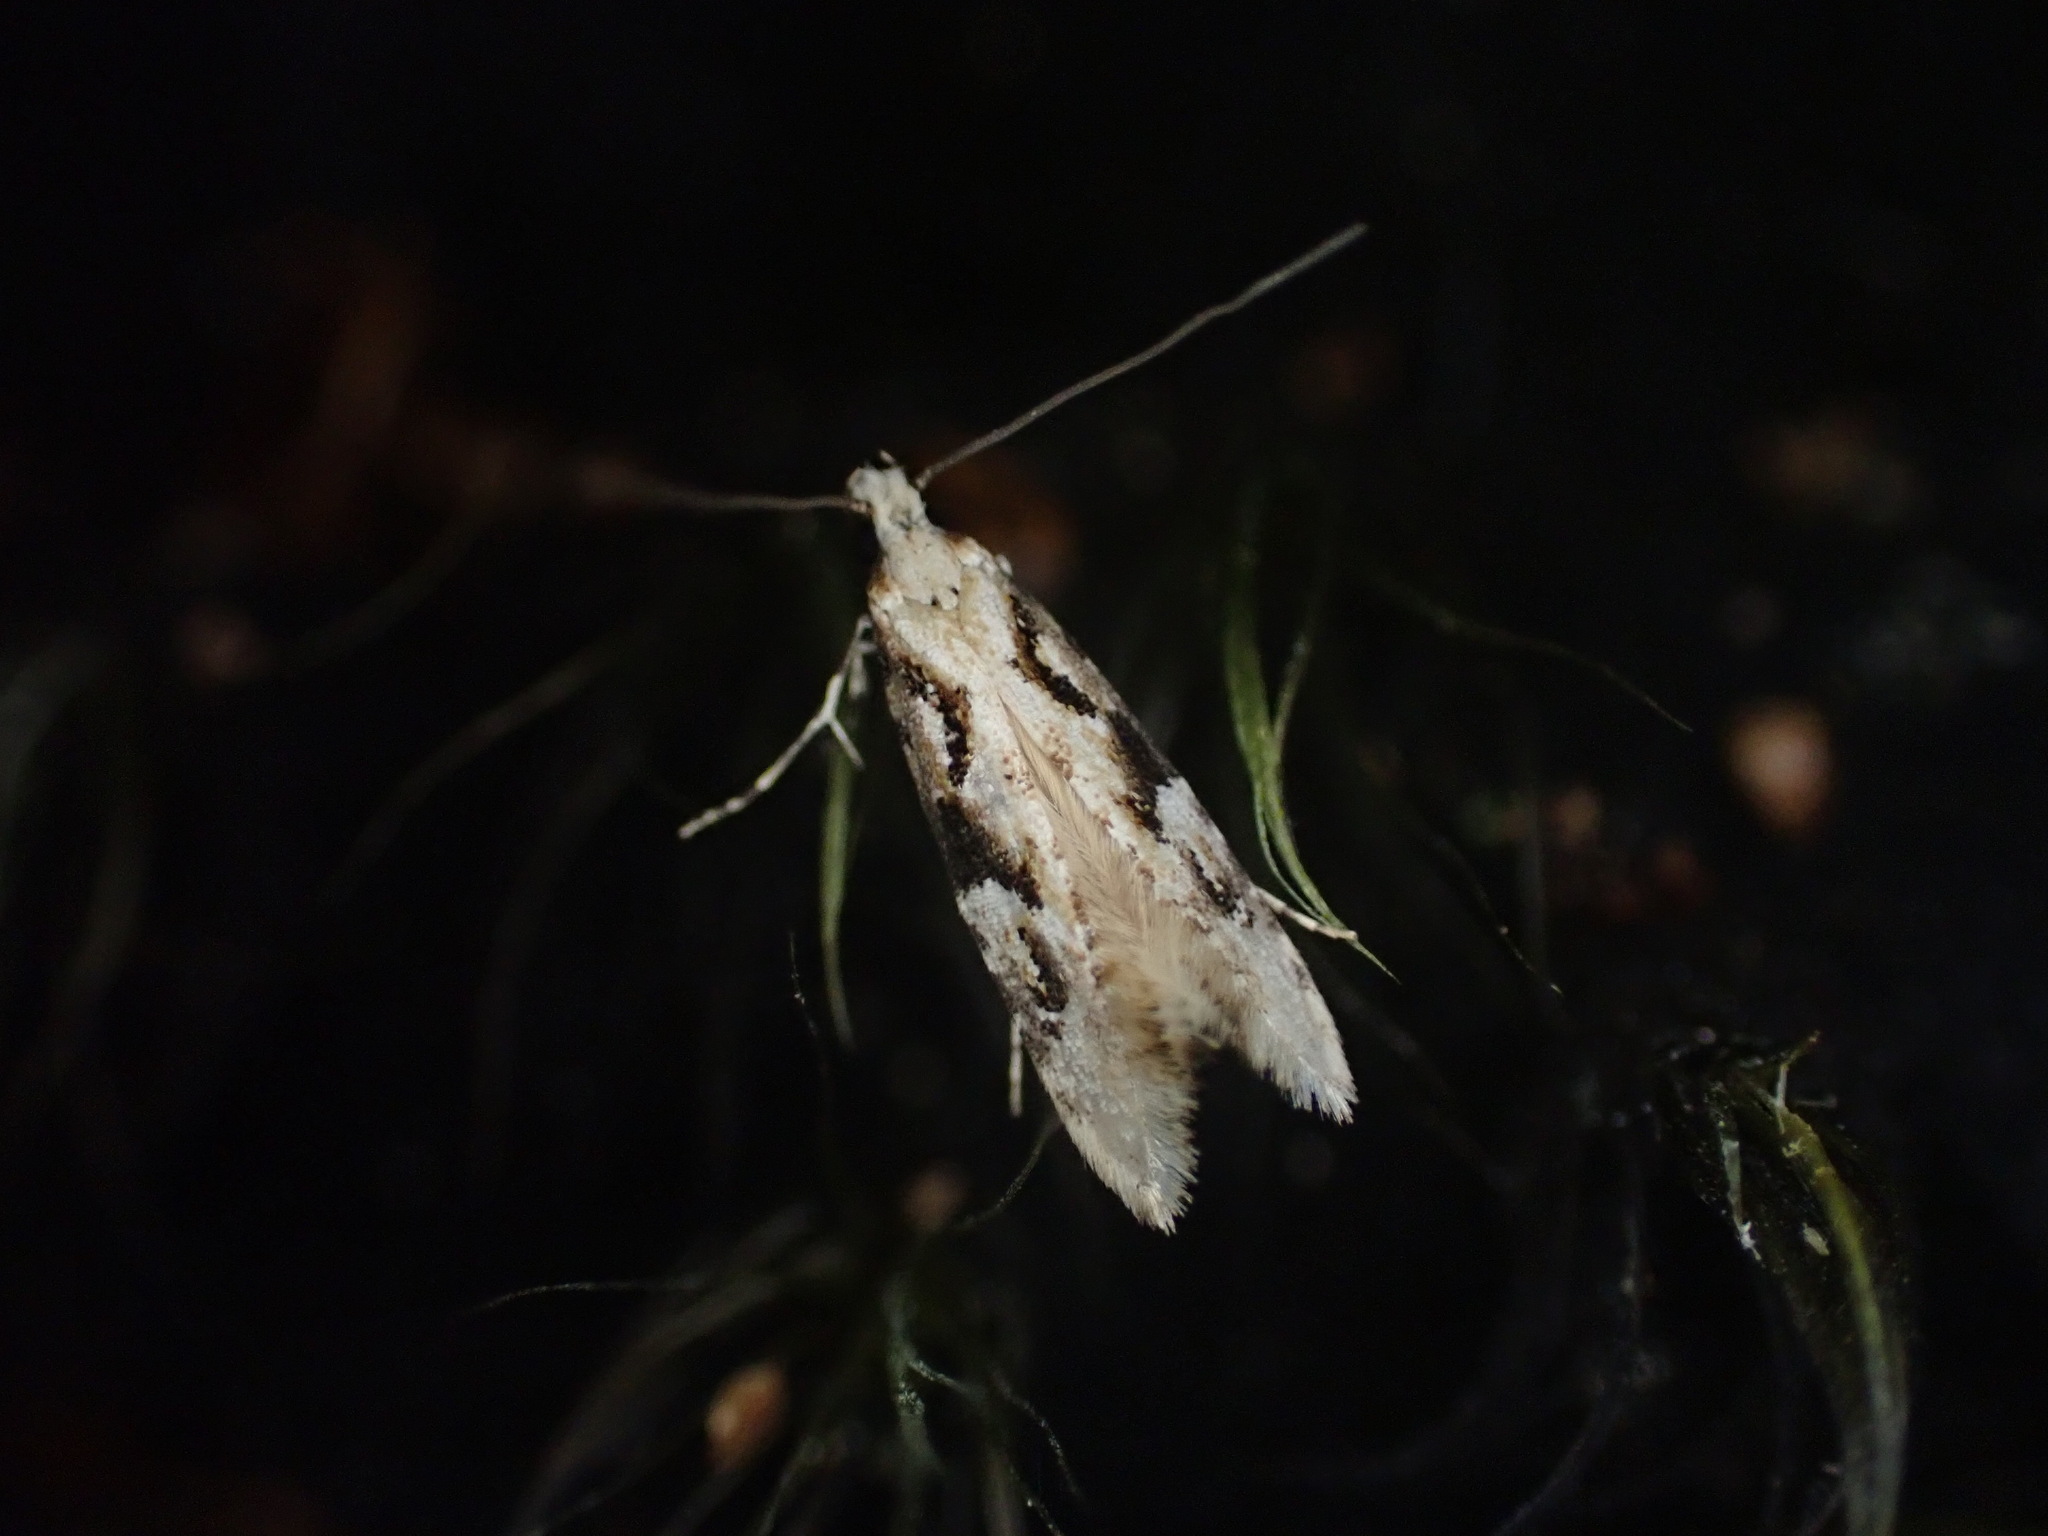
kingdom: Animalia
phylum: Arthropoda
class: Insecta
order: Lepidoptera
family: Tineidae
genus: Crypsitricha
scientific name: Crypsitricha mesotypa
